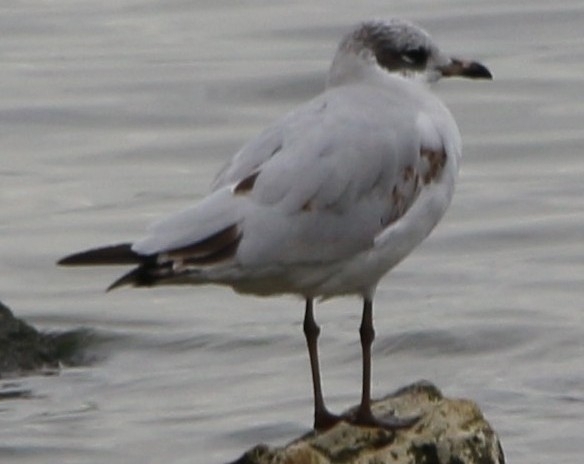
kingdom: Animalia
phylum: Chordata
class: Aves
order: Charadriiformes
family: Laridae
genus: Ichthyaetus
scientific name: Ichthyaetus melanocephalus
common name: Mediterranean gull
